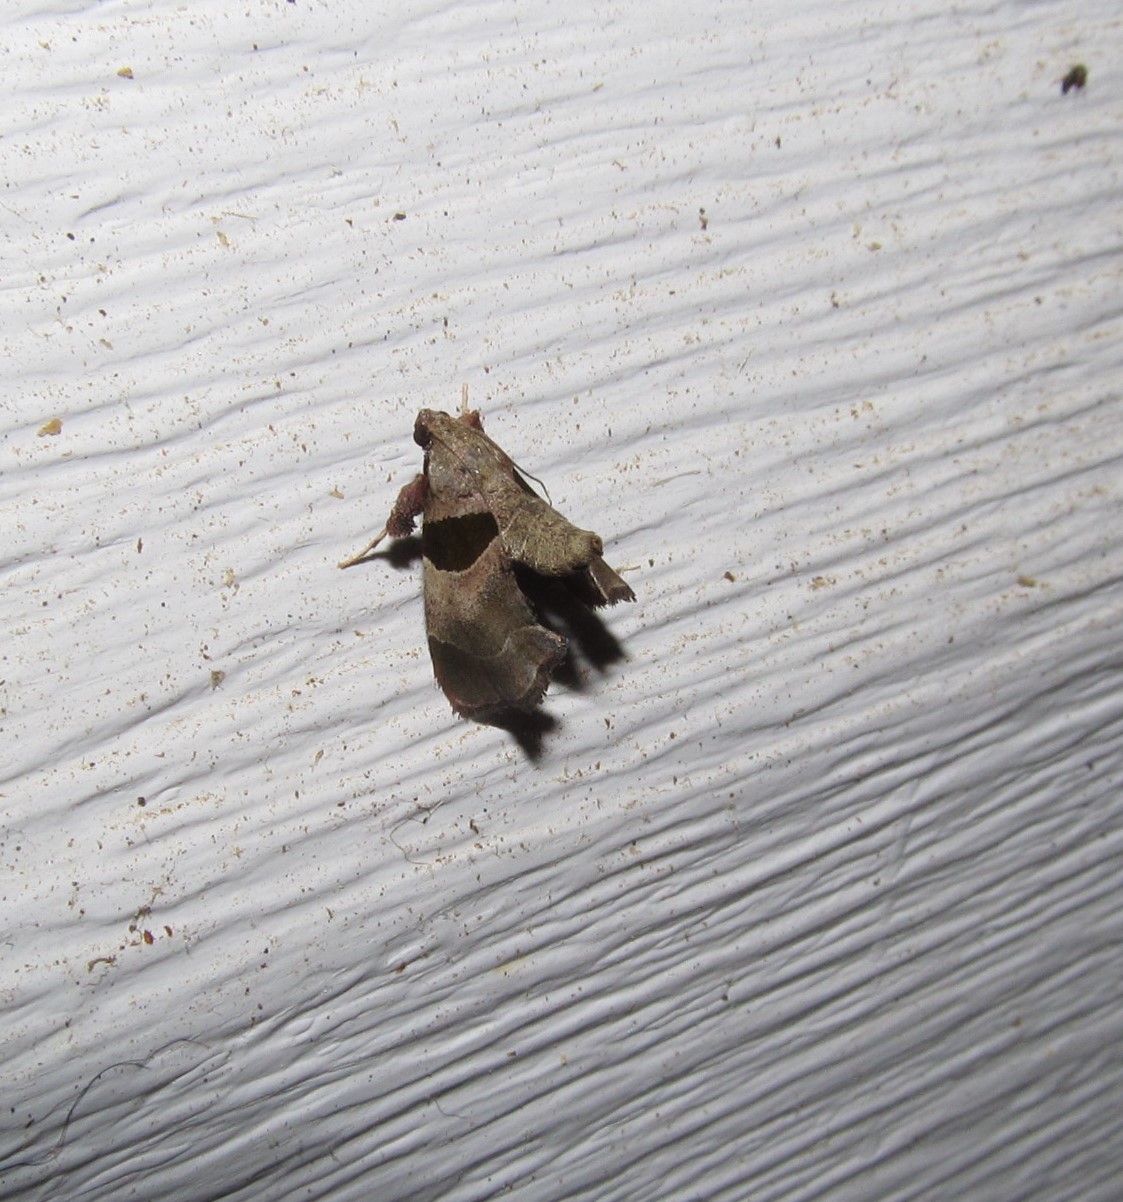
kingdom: Animalia
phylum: Arthropoda
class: Insecta
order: Lepidoptera
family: Pyralidae
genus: Tosale
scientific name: Tosale oviplagalis
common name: Dimorphic tosale moth
